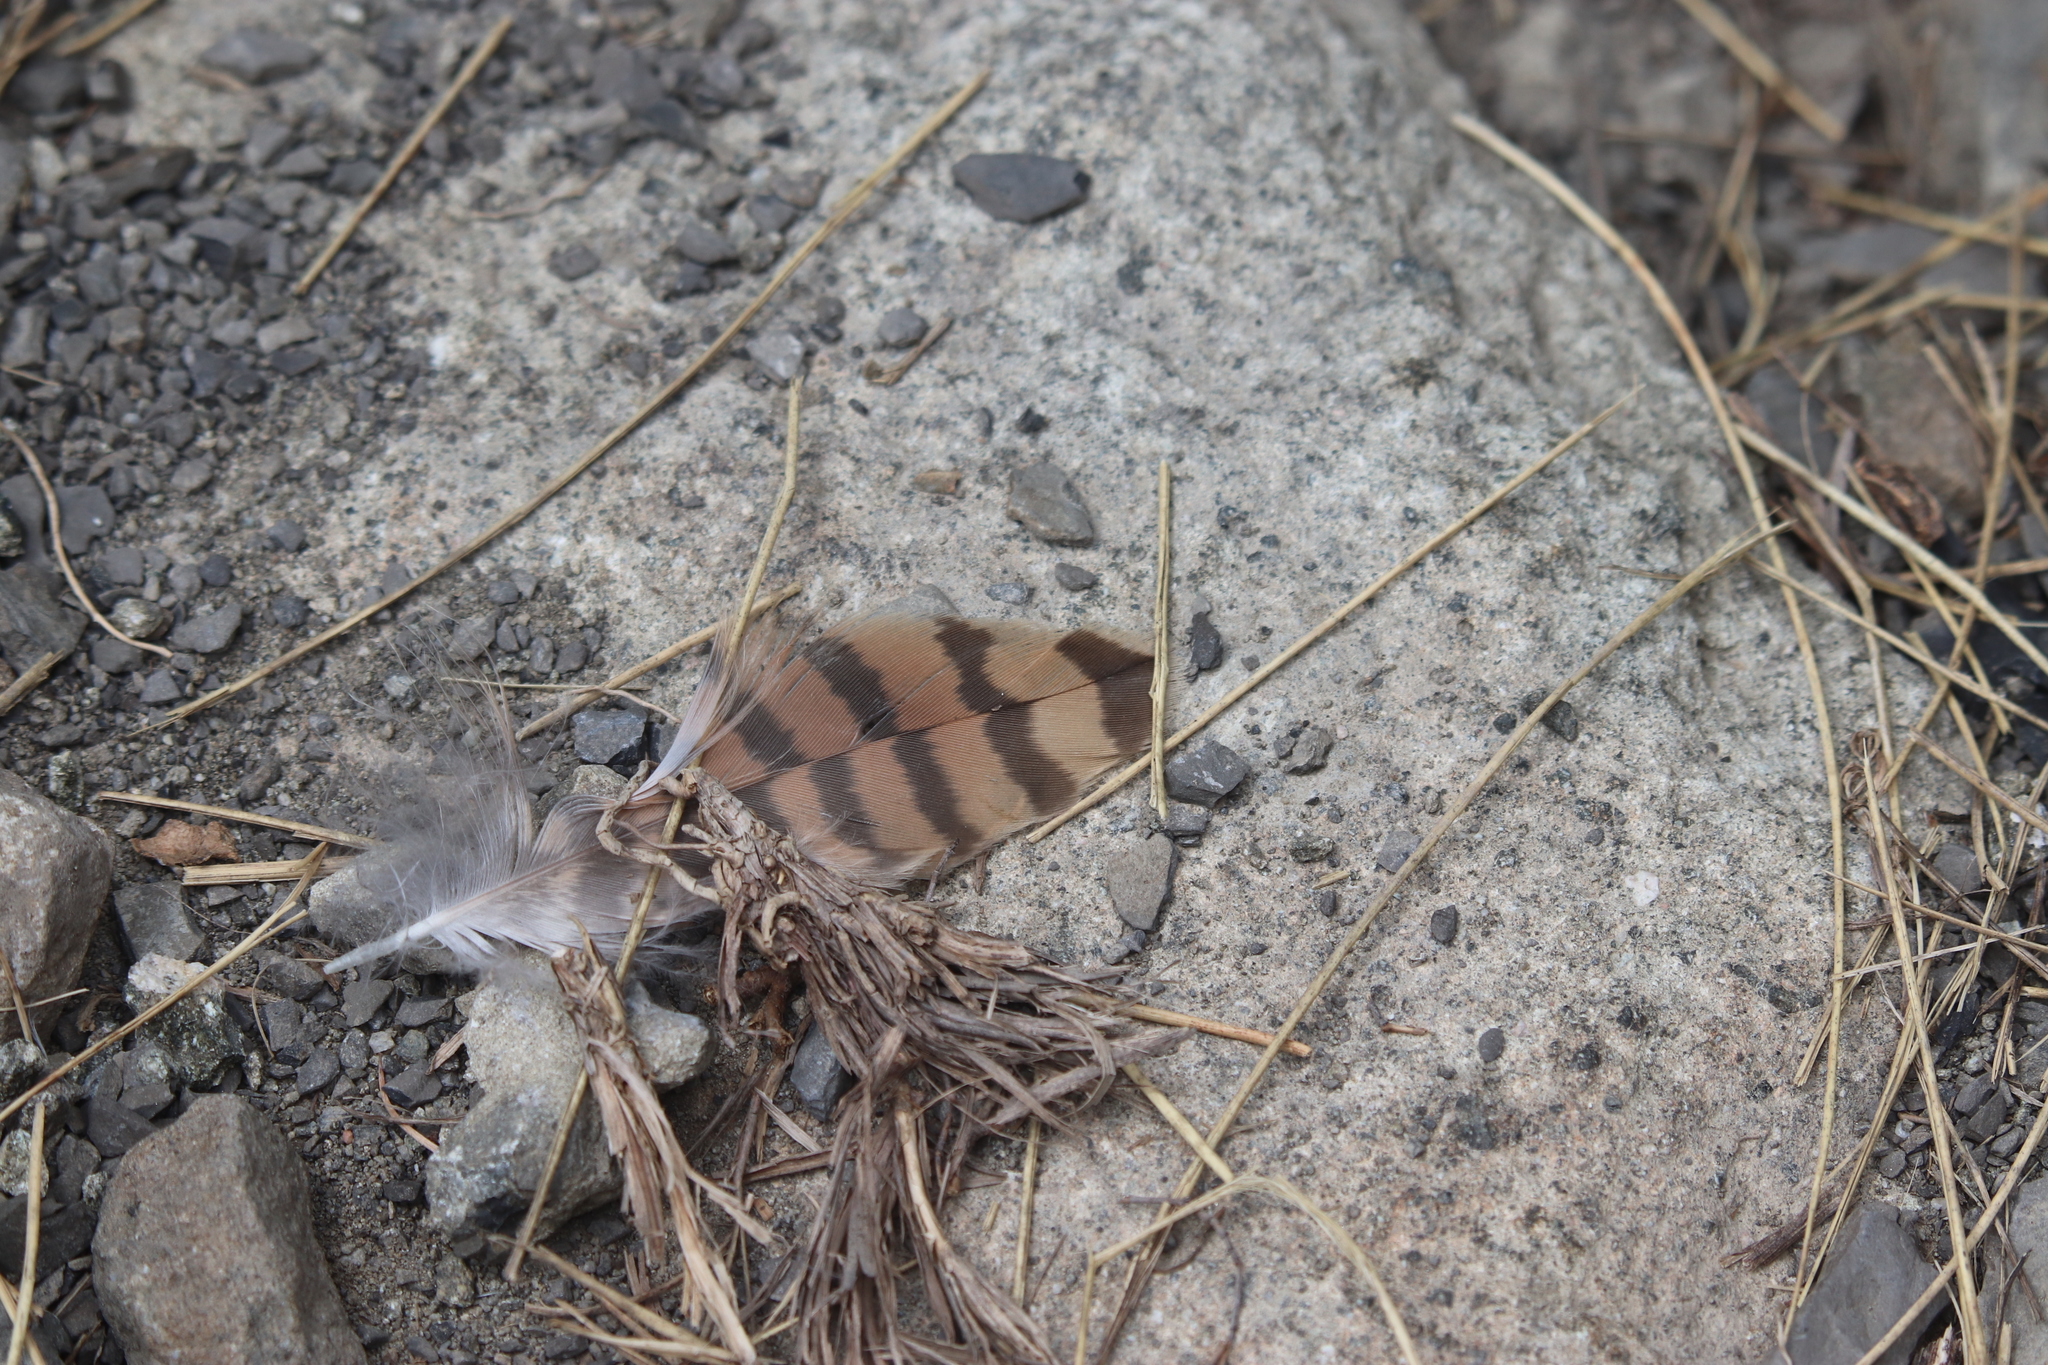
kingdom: Animalia
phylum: Chordata
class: Aves
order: Falconiformes
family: Falconidae
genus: Falco
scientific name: Falco tinnunculus
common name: Common kestrel
